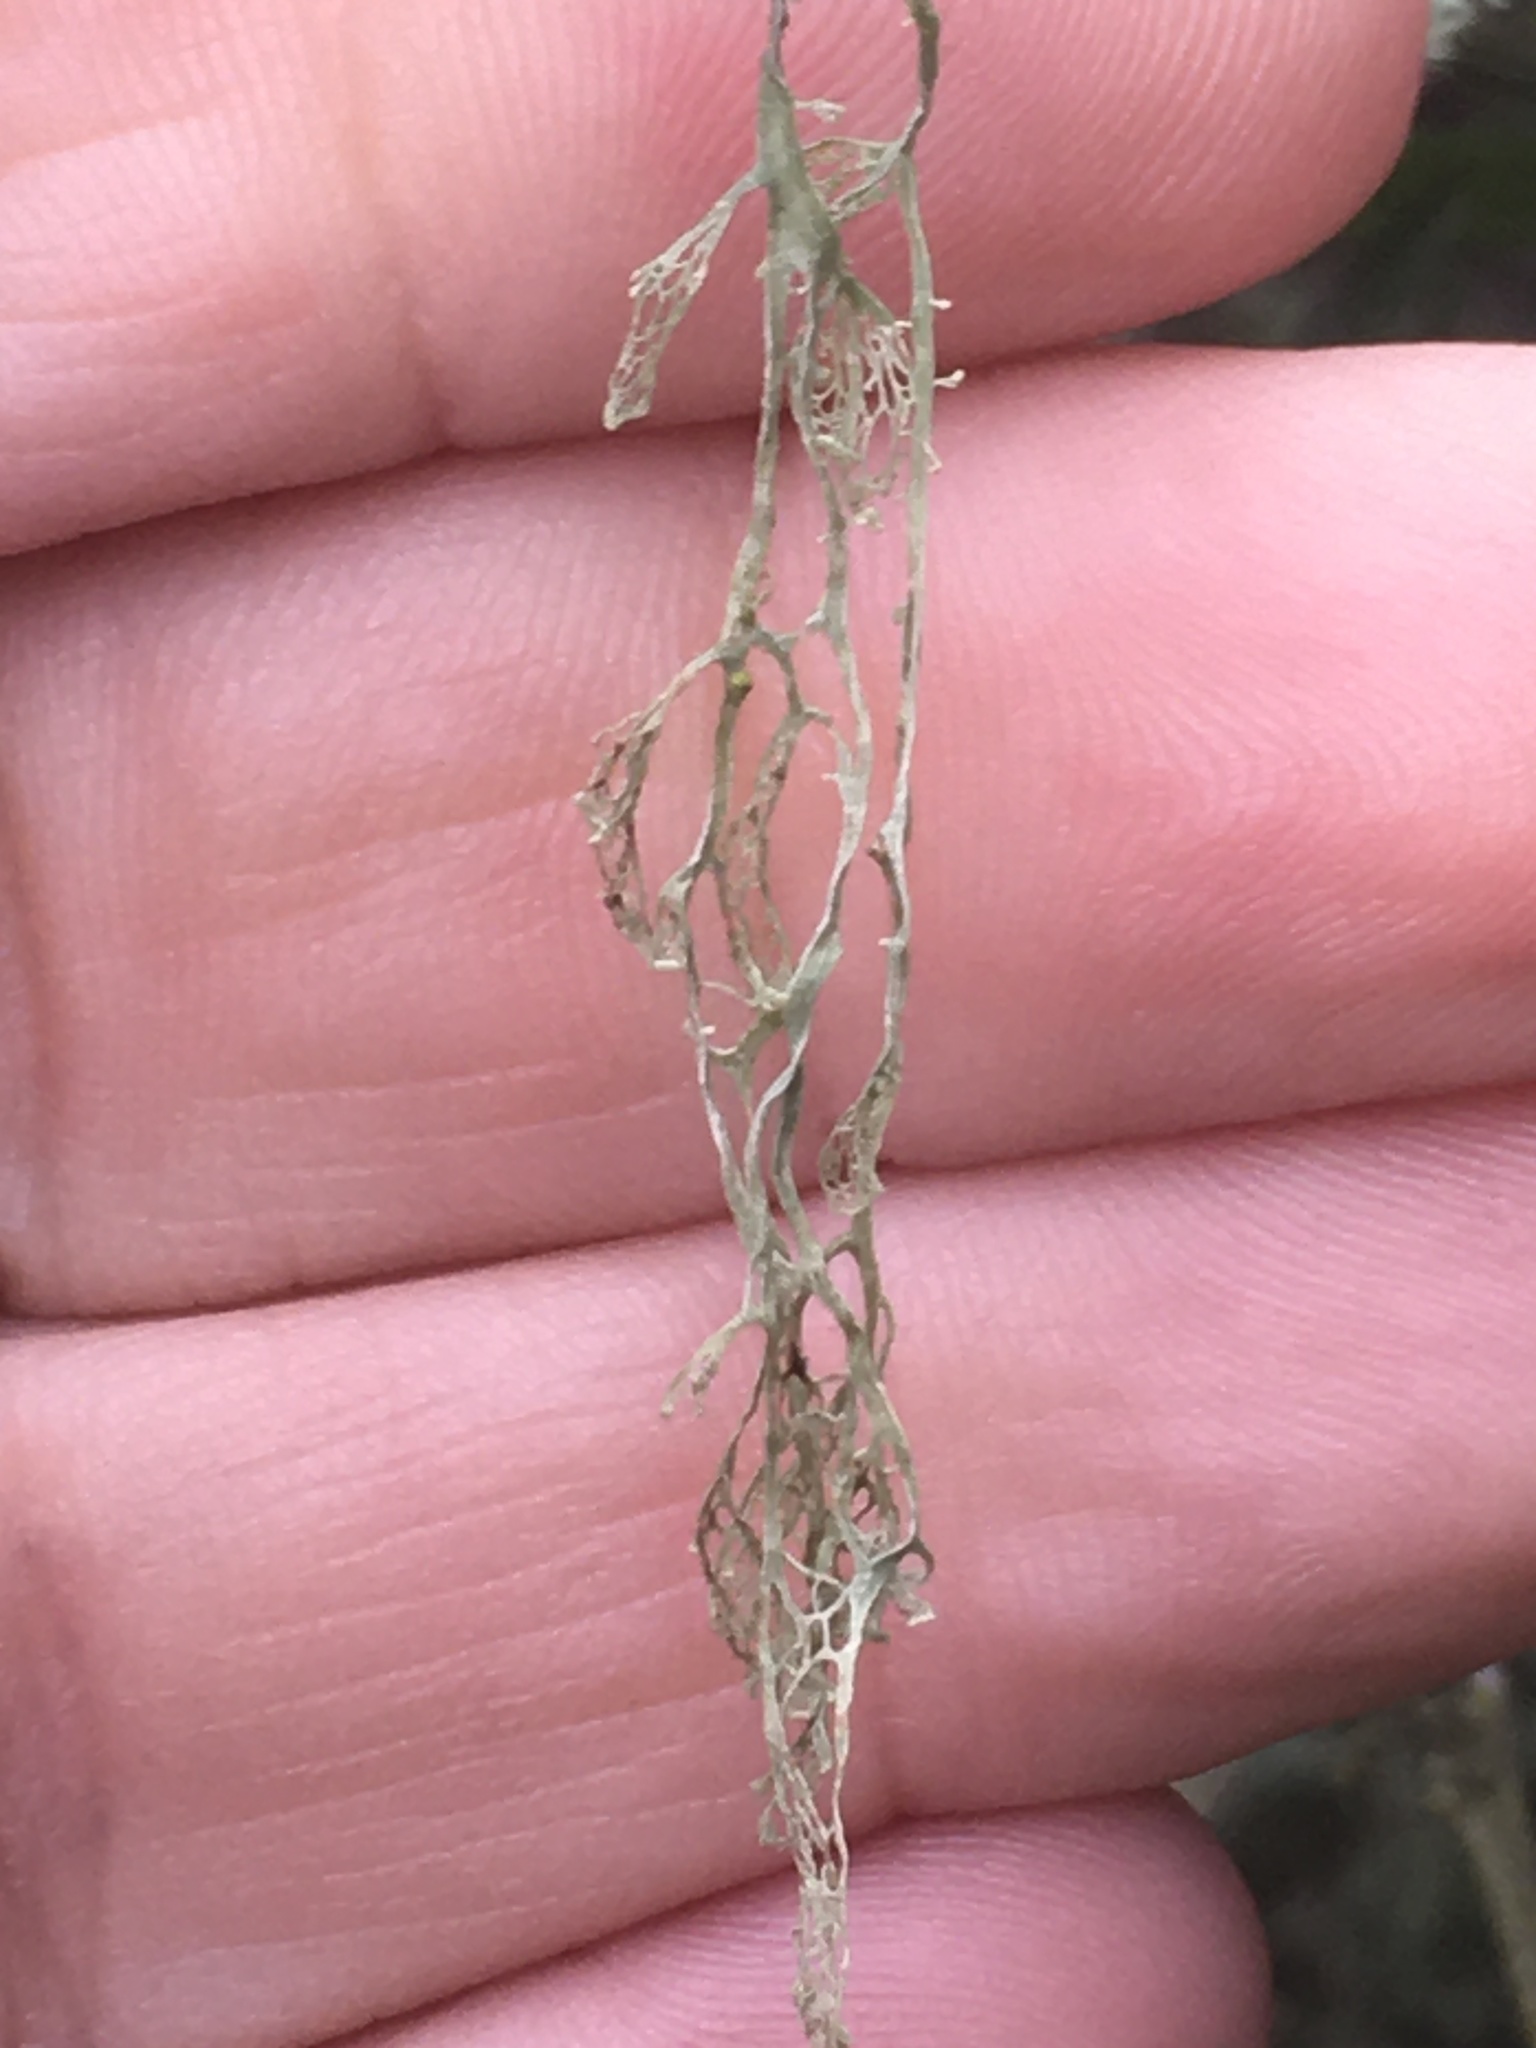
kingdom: Fungi
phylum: Ascomycota
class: Lecanoromycetes
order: Lecanorales
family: Ramalinaceae
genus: Ramalina
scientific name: Ramalina menziesii
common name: Lace lichen
